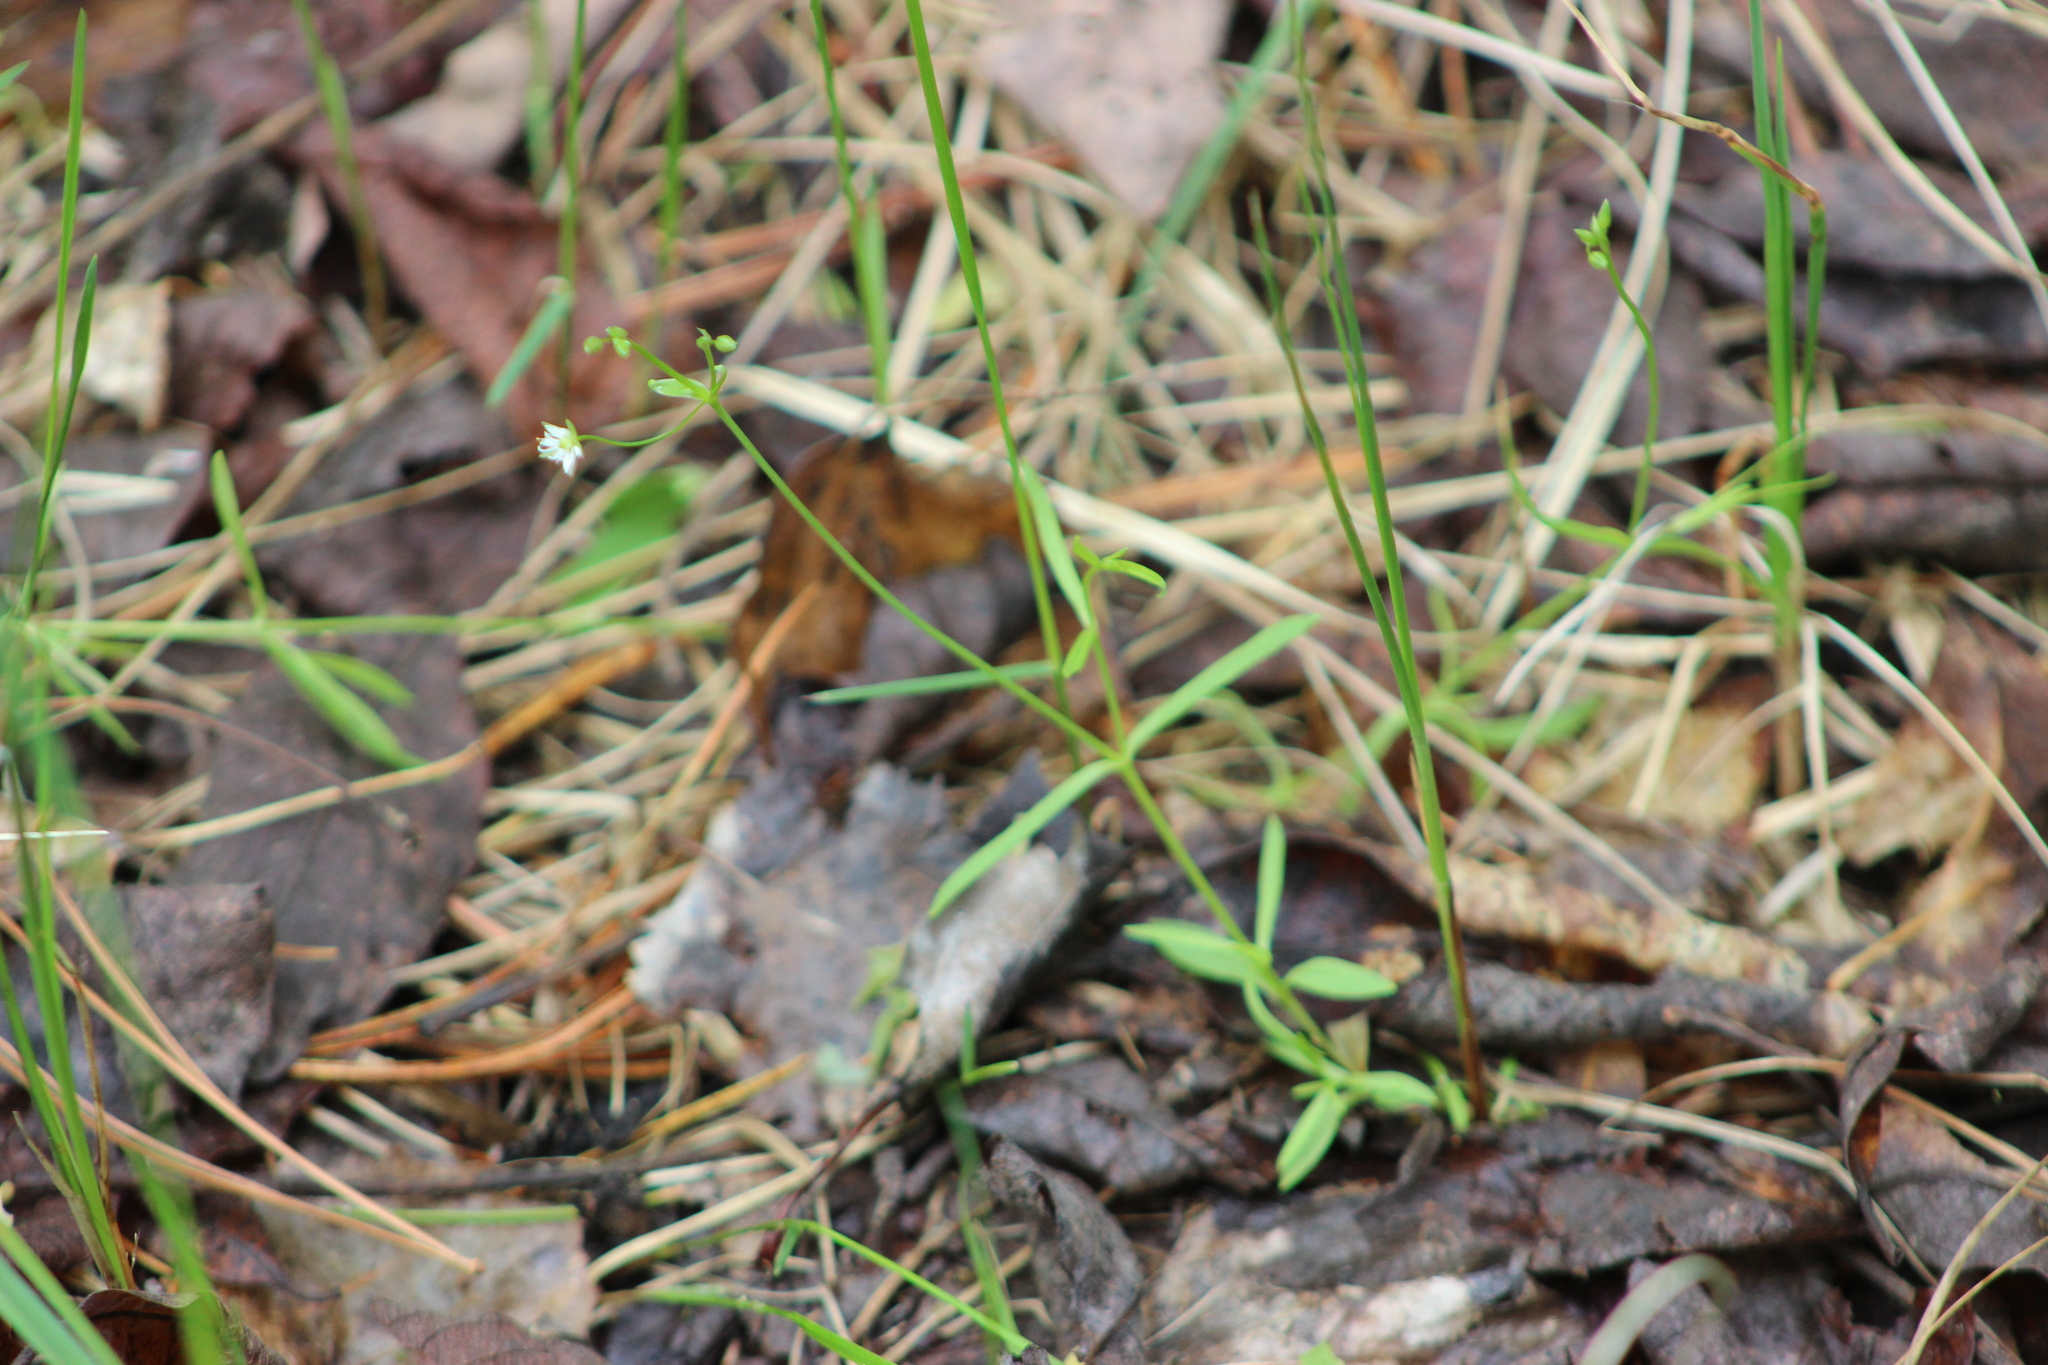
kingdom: Plantae
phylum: Tracheophyta
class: Magnoliopsida
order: Caryophyllales
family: Caryophyllaceae
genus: Stellaria
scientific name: Stellaria longifolia
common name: Long-leaved chickweed
